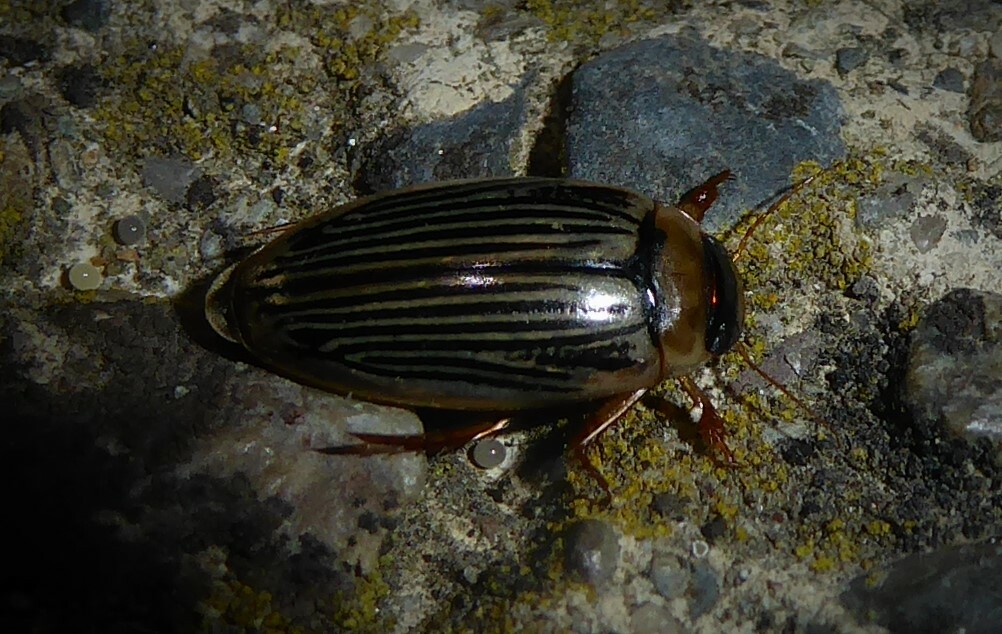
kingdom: Animalia
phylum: Arthropoda
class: Insecta
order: Coleoptera
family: Dytiscidae
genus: Lancetes
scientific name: Lancetes lanceolatus
